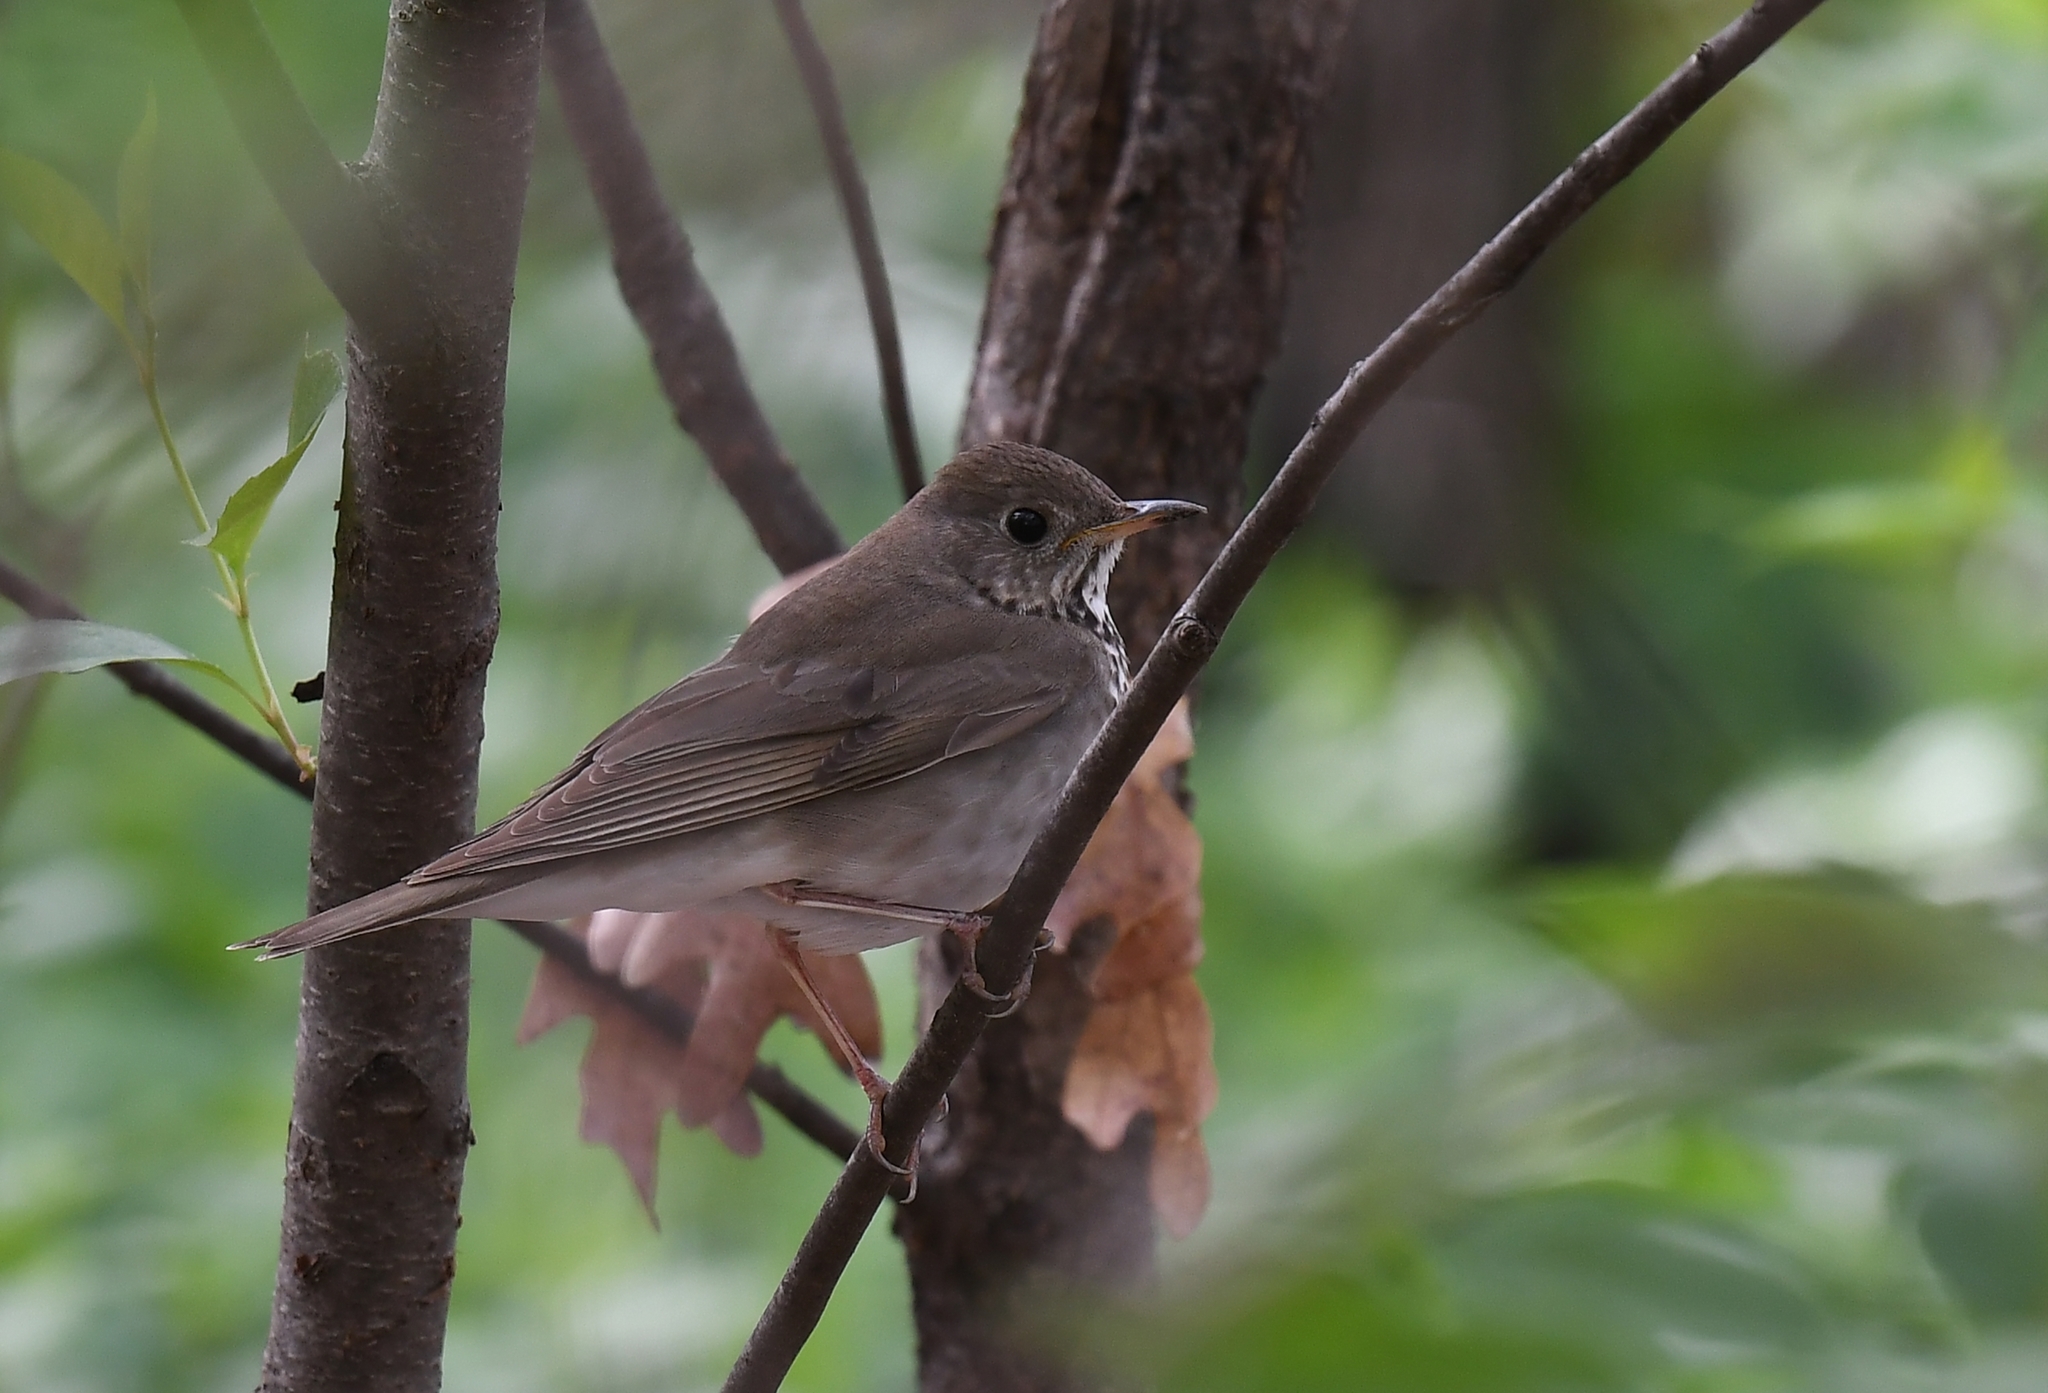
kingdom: Animalia
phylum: Chordata
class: Aves
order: Passeriformes
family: Turdidae
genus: Catharus
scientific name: Catharus minimus
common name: Grey-cheeked thrush
